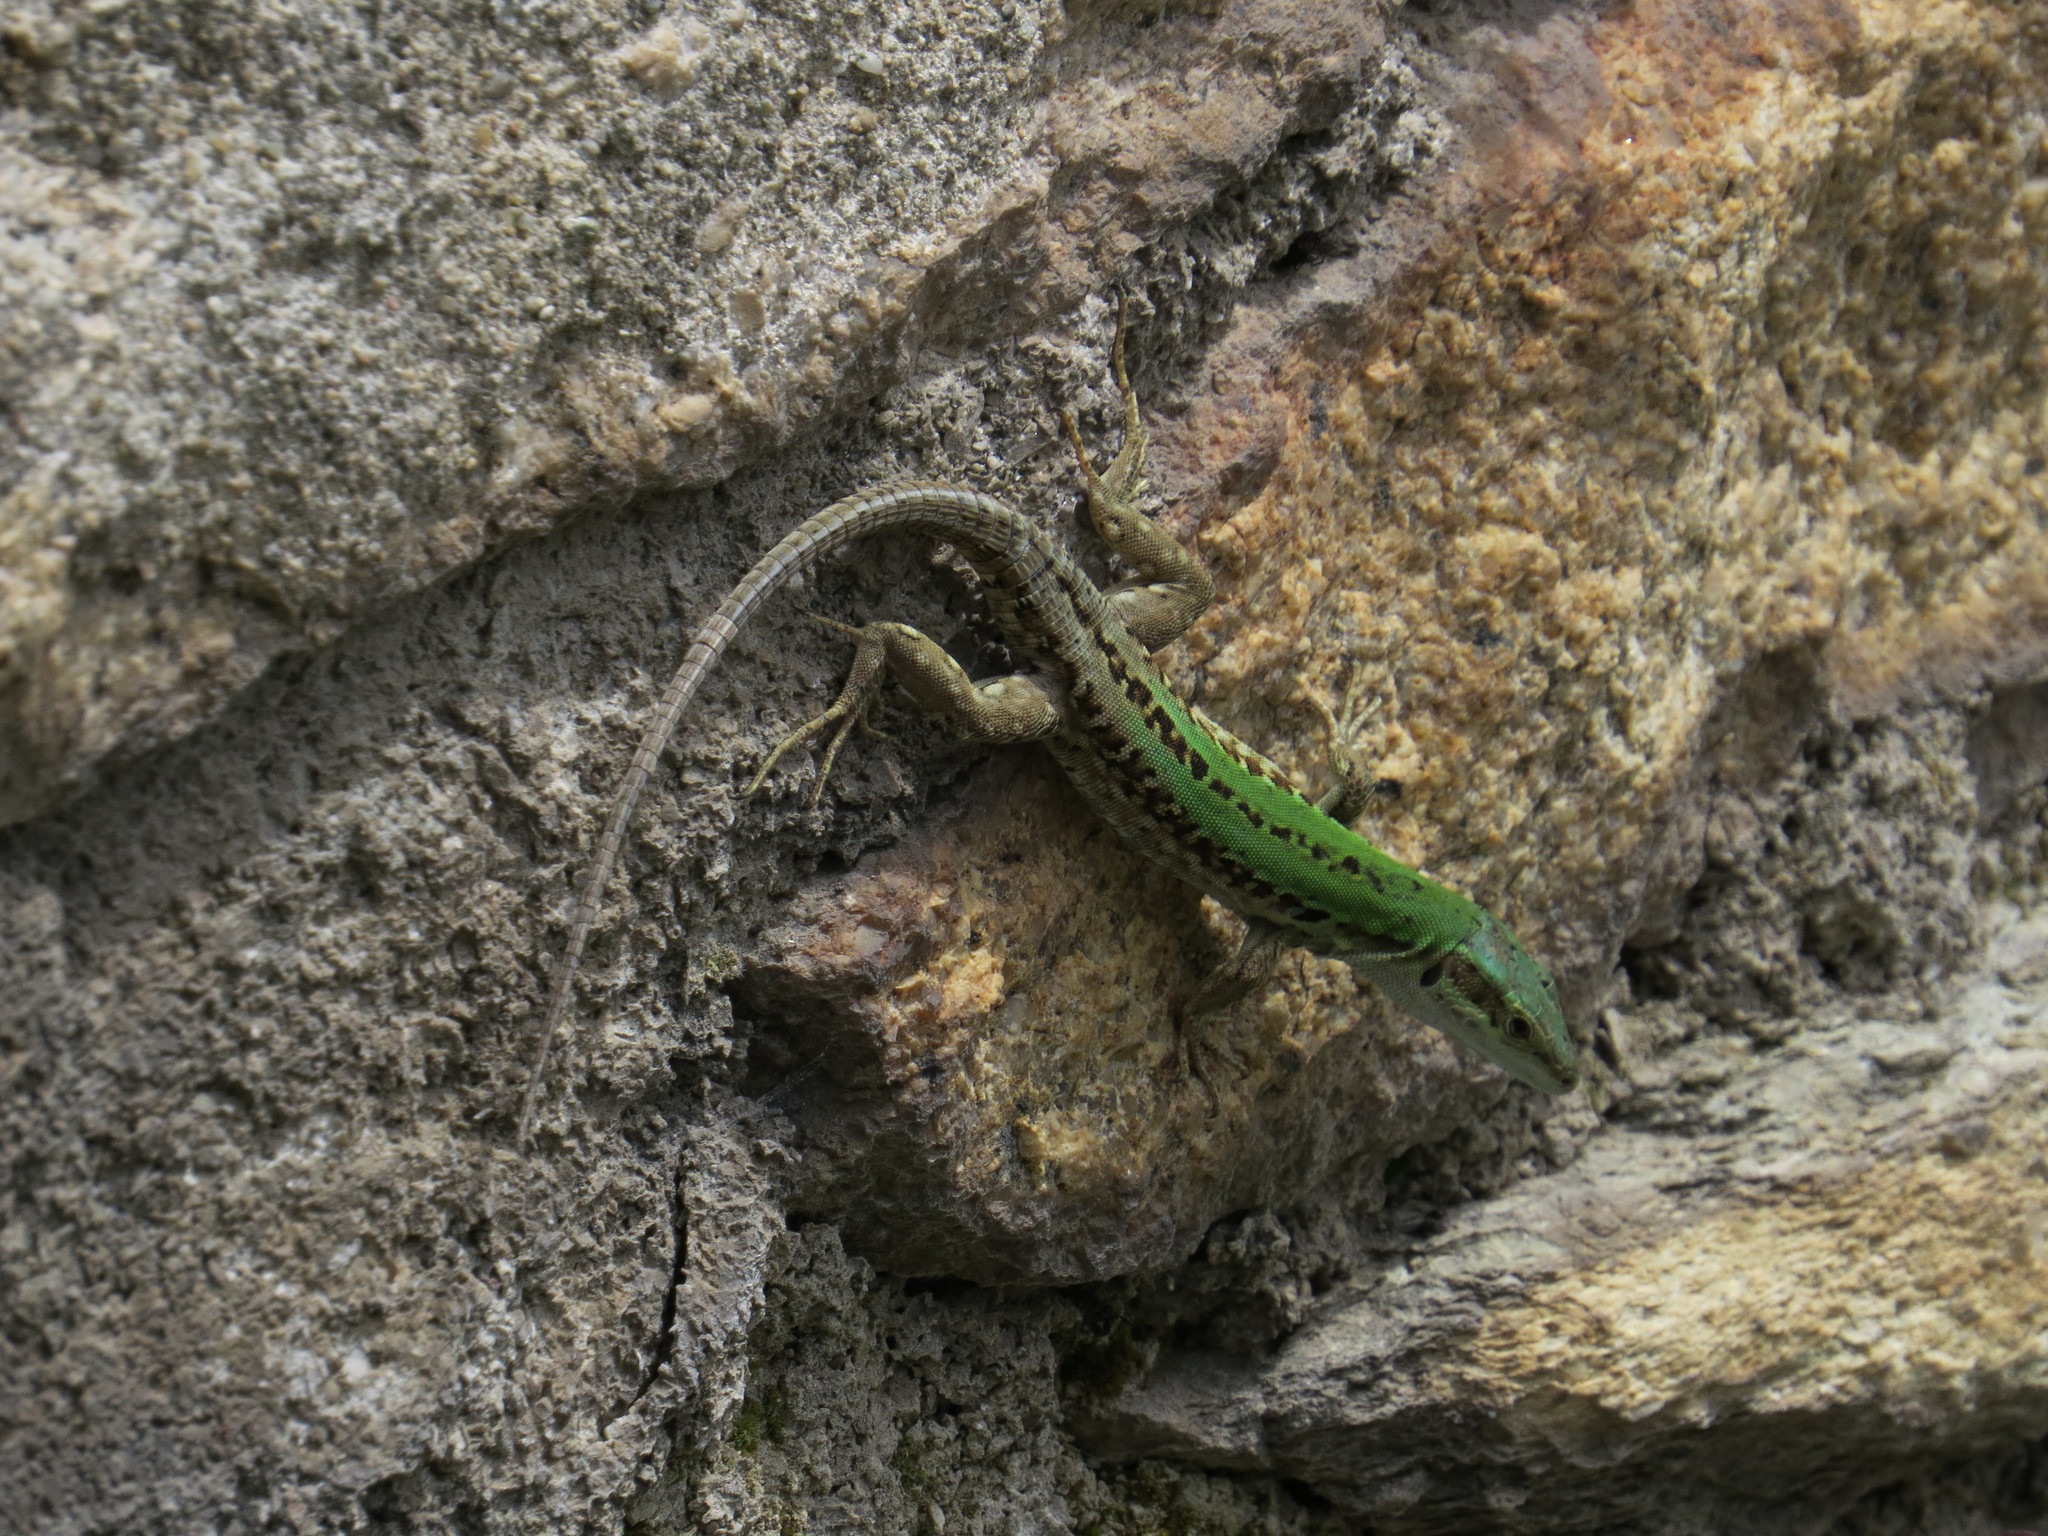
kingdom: Animalia
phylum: Chordata
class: Squamata
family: Lacertidae
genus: Podarcis
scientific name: Podarcis siculus
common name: Italian wall lizard
